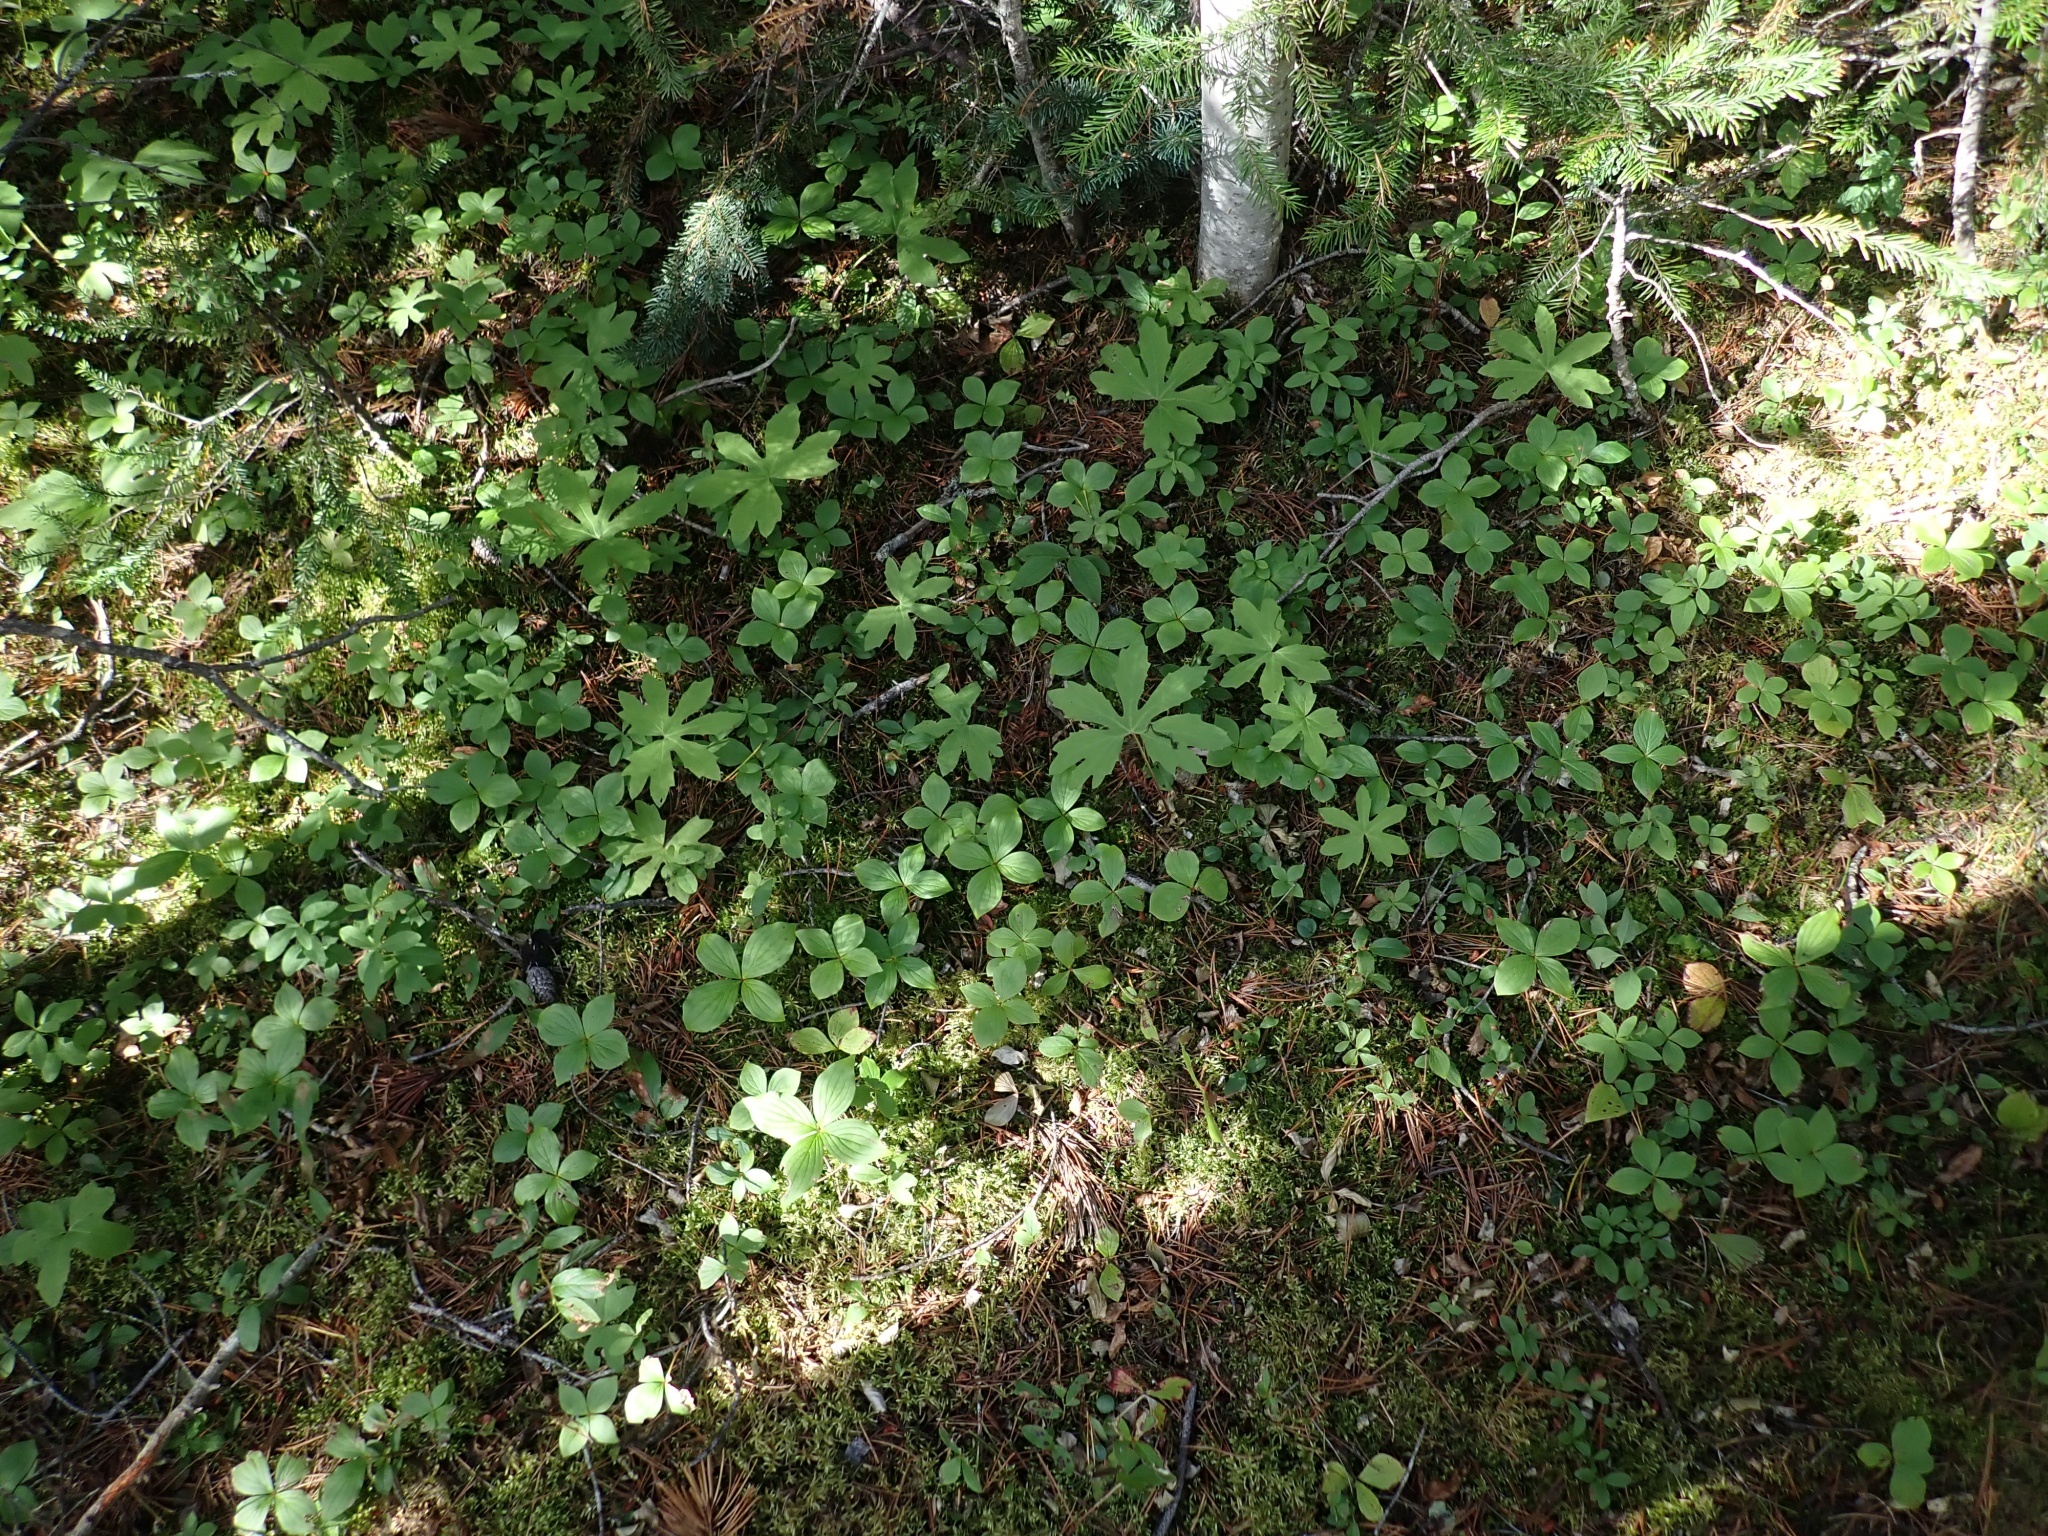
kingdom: Plantae
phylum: Tracheophyta
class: Magnoliopsida
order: Asterales
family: Asteraceae
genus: Petasites
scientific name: Petasites frigidus
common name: Arctic butterbur
